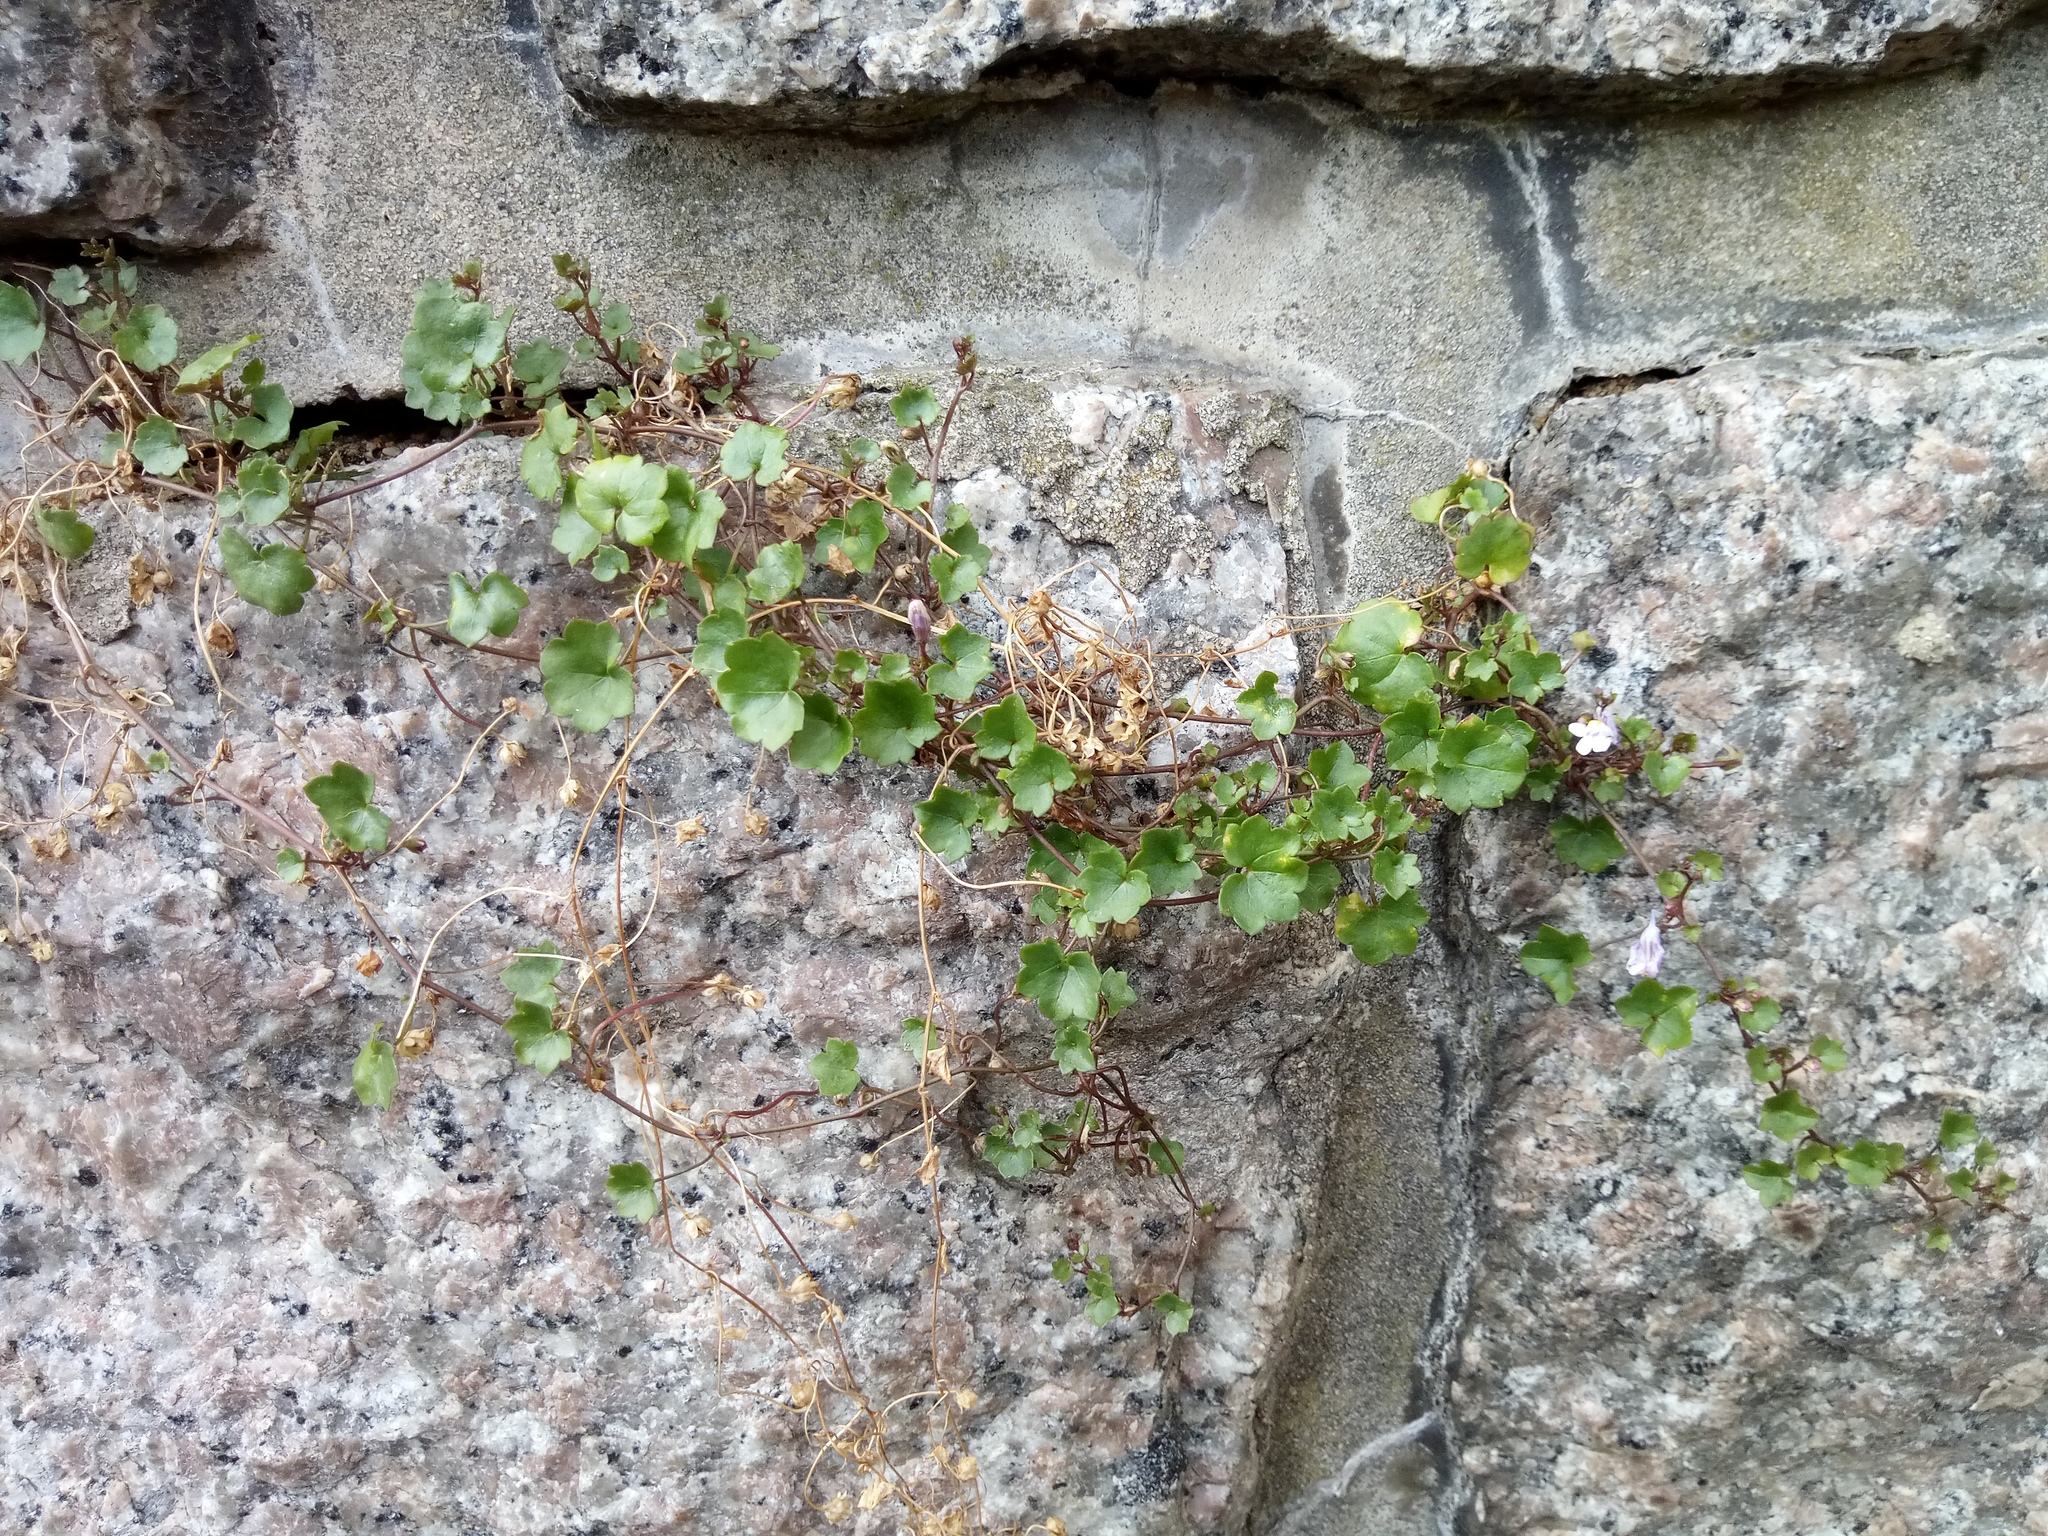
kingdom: Plantae
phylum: Tracheophyta
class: Magnoliopsida
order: Lamiales
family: Plantaginaceae
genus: Cymbalaria
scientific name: Cymbalaria muralis
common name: Ivy-leaved toadflax
